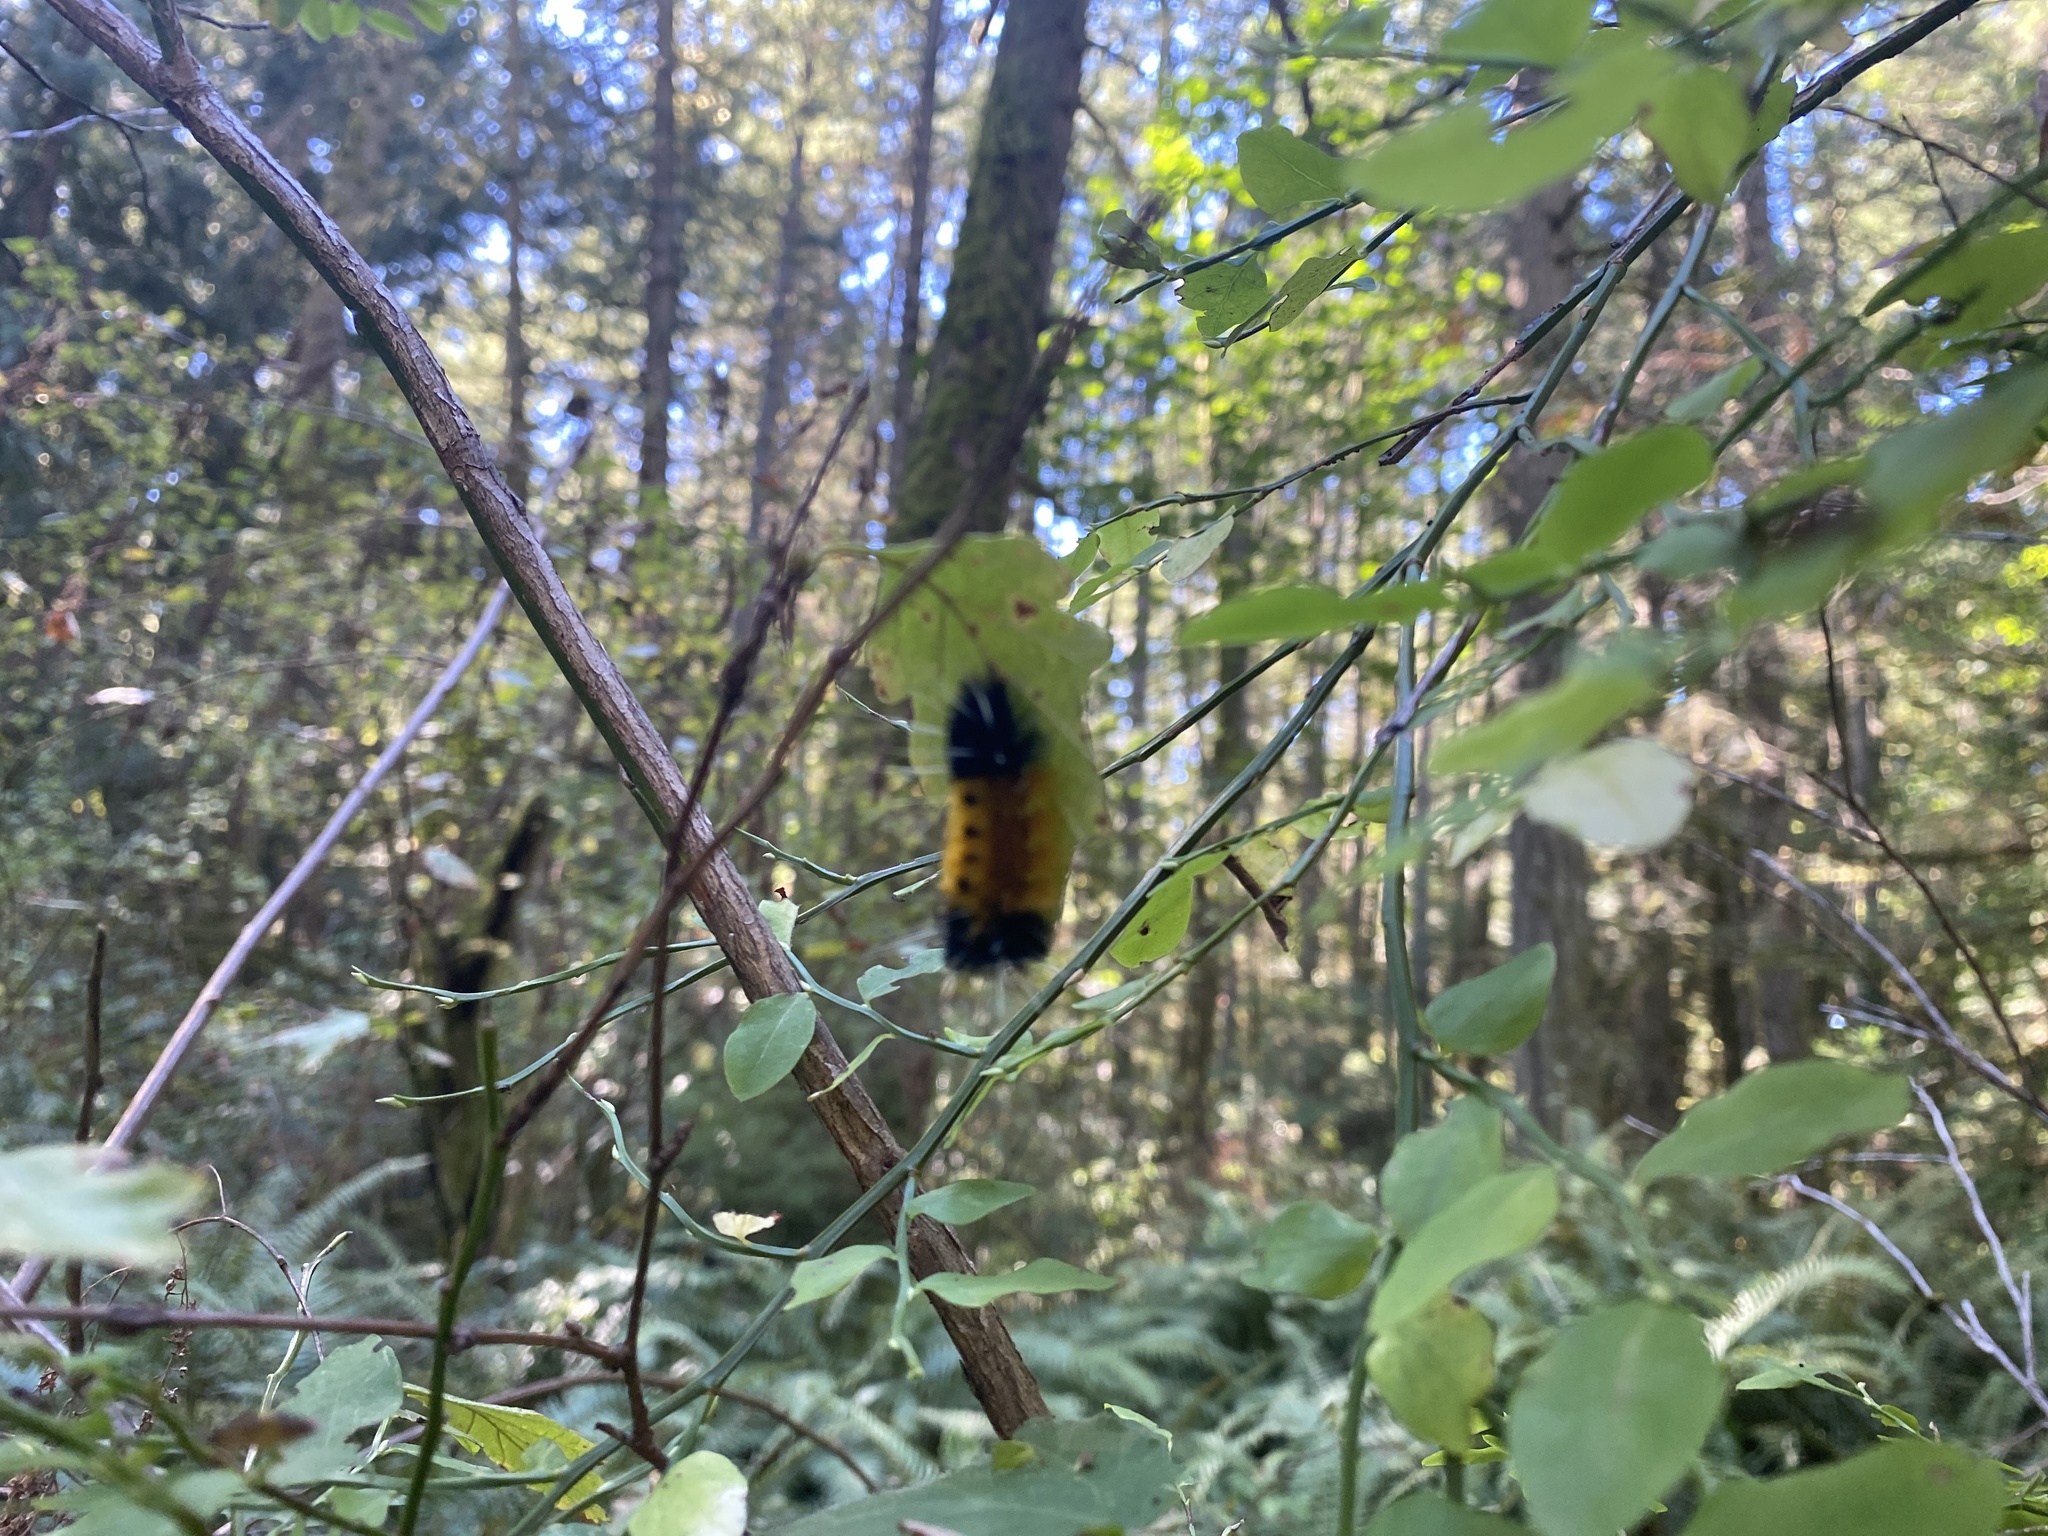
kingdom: Animalia
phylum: Arthropoda
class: Insecta
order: Lepidoptera
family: Erebidae
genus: Lophocampa
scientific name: Lophocampa maculata
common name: Spotted tussock moth
